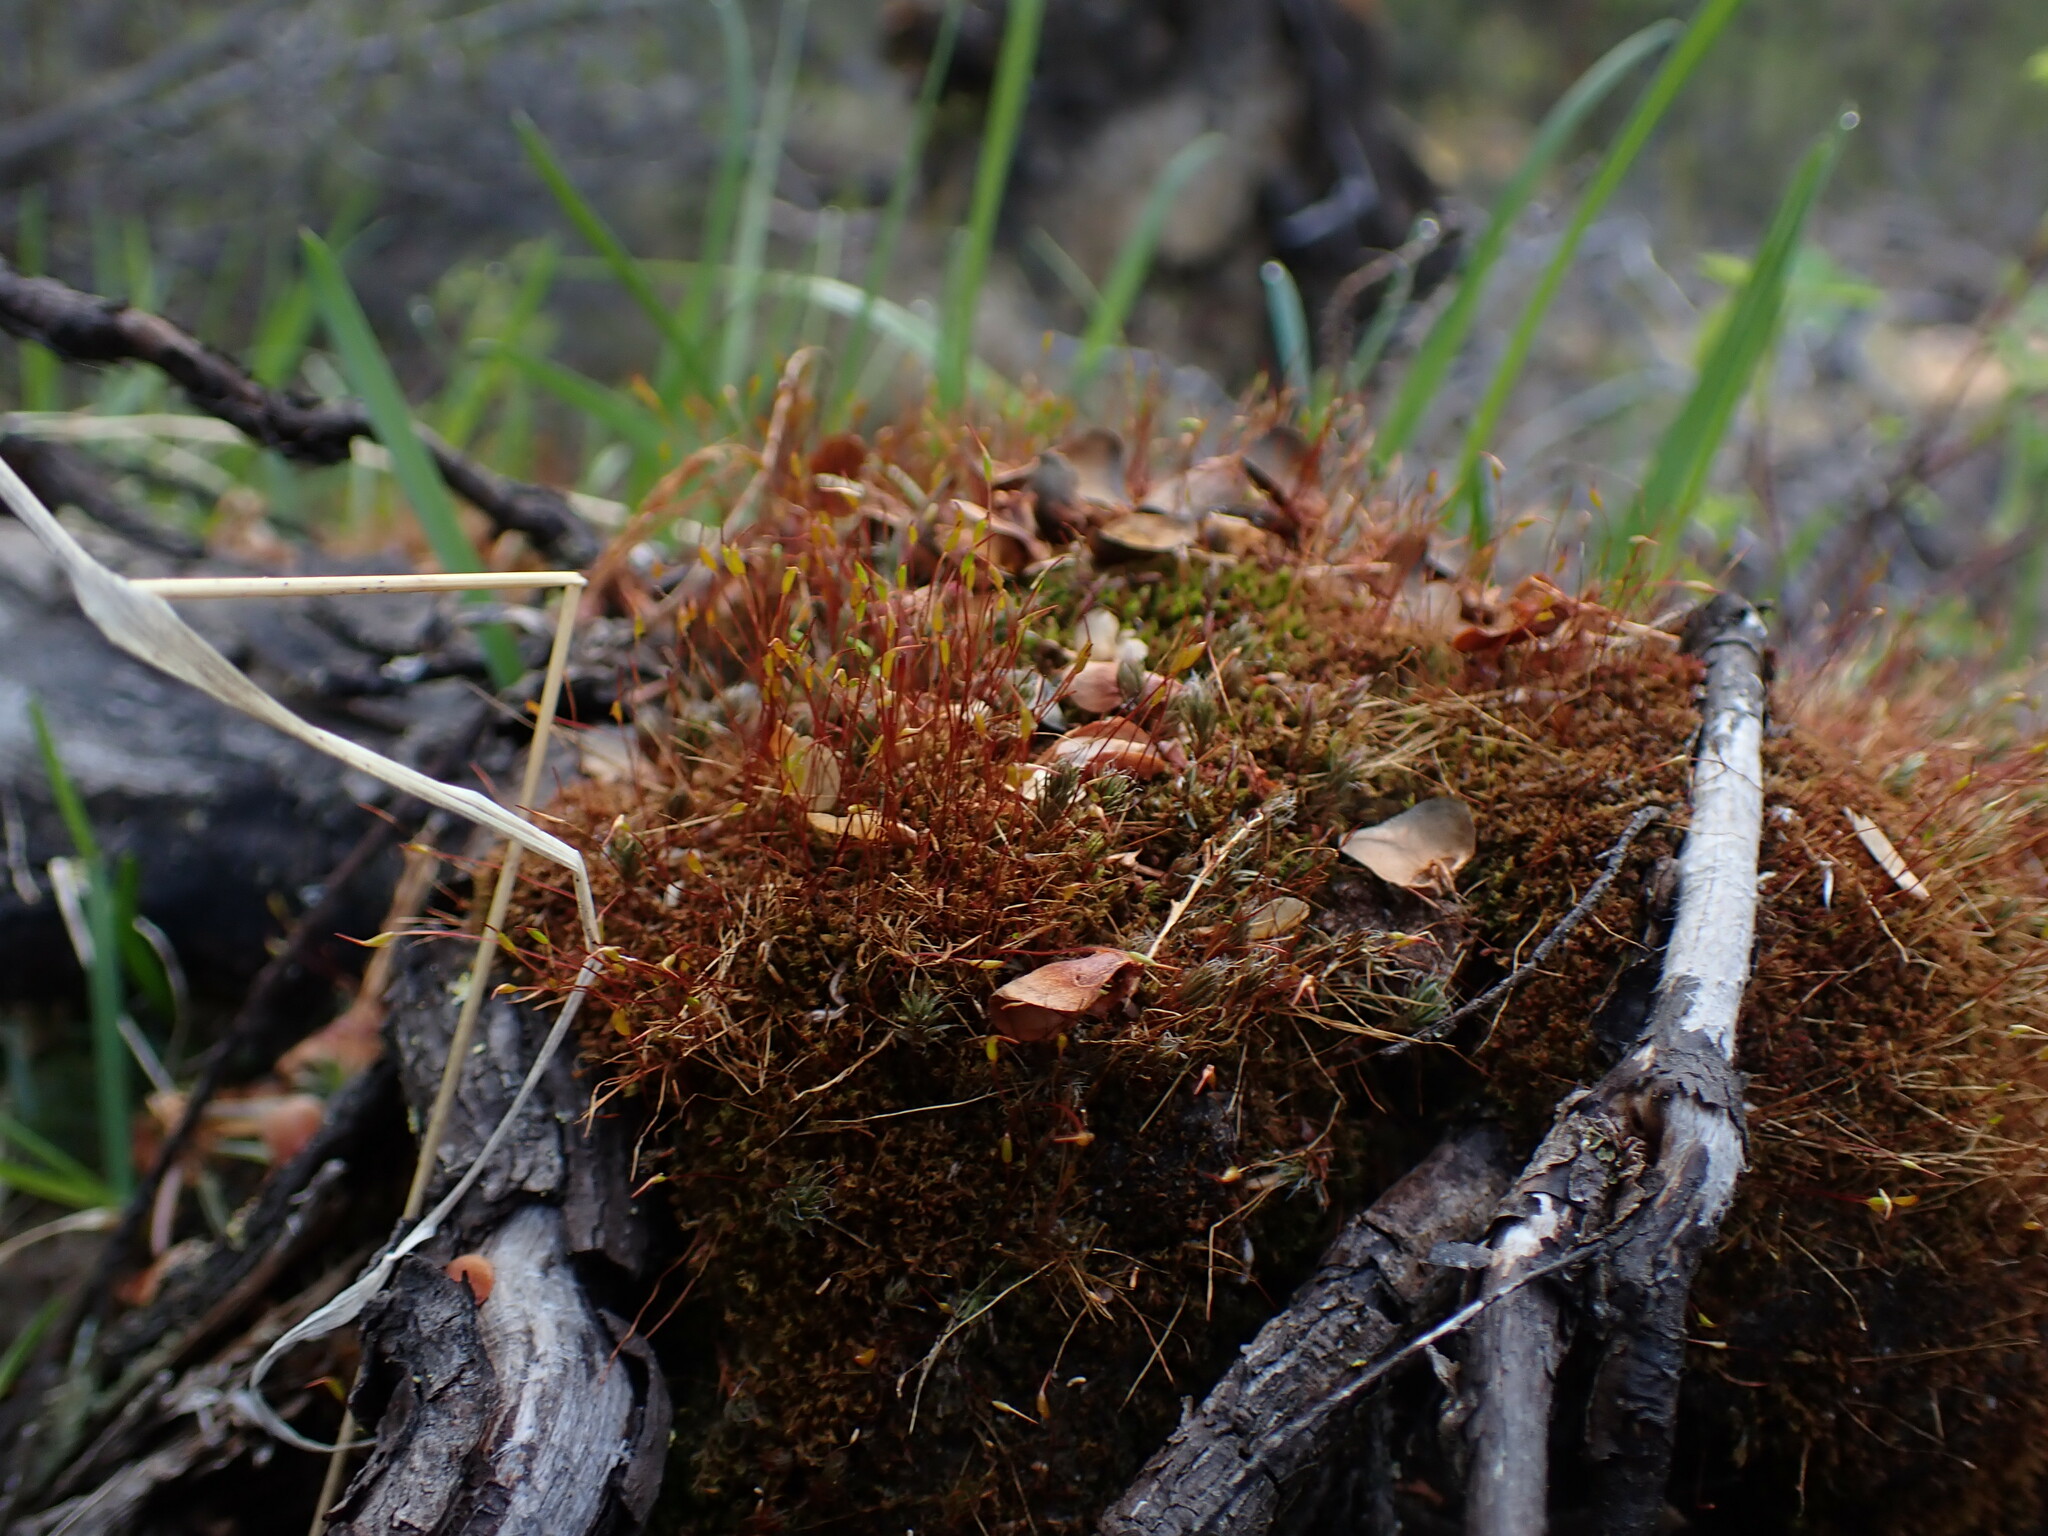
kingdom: Plantae
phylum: Bryophyta
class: Bryopsida
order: Dicranales
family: Ditrichaceae
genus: Ceratodon
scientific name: Ceratodon purpureus
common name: Redshank
